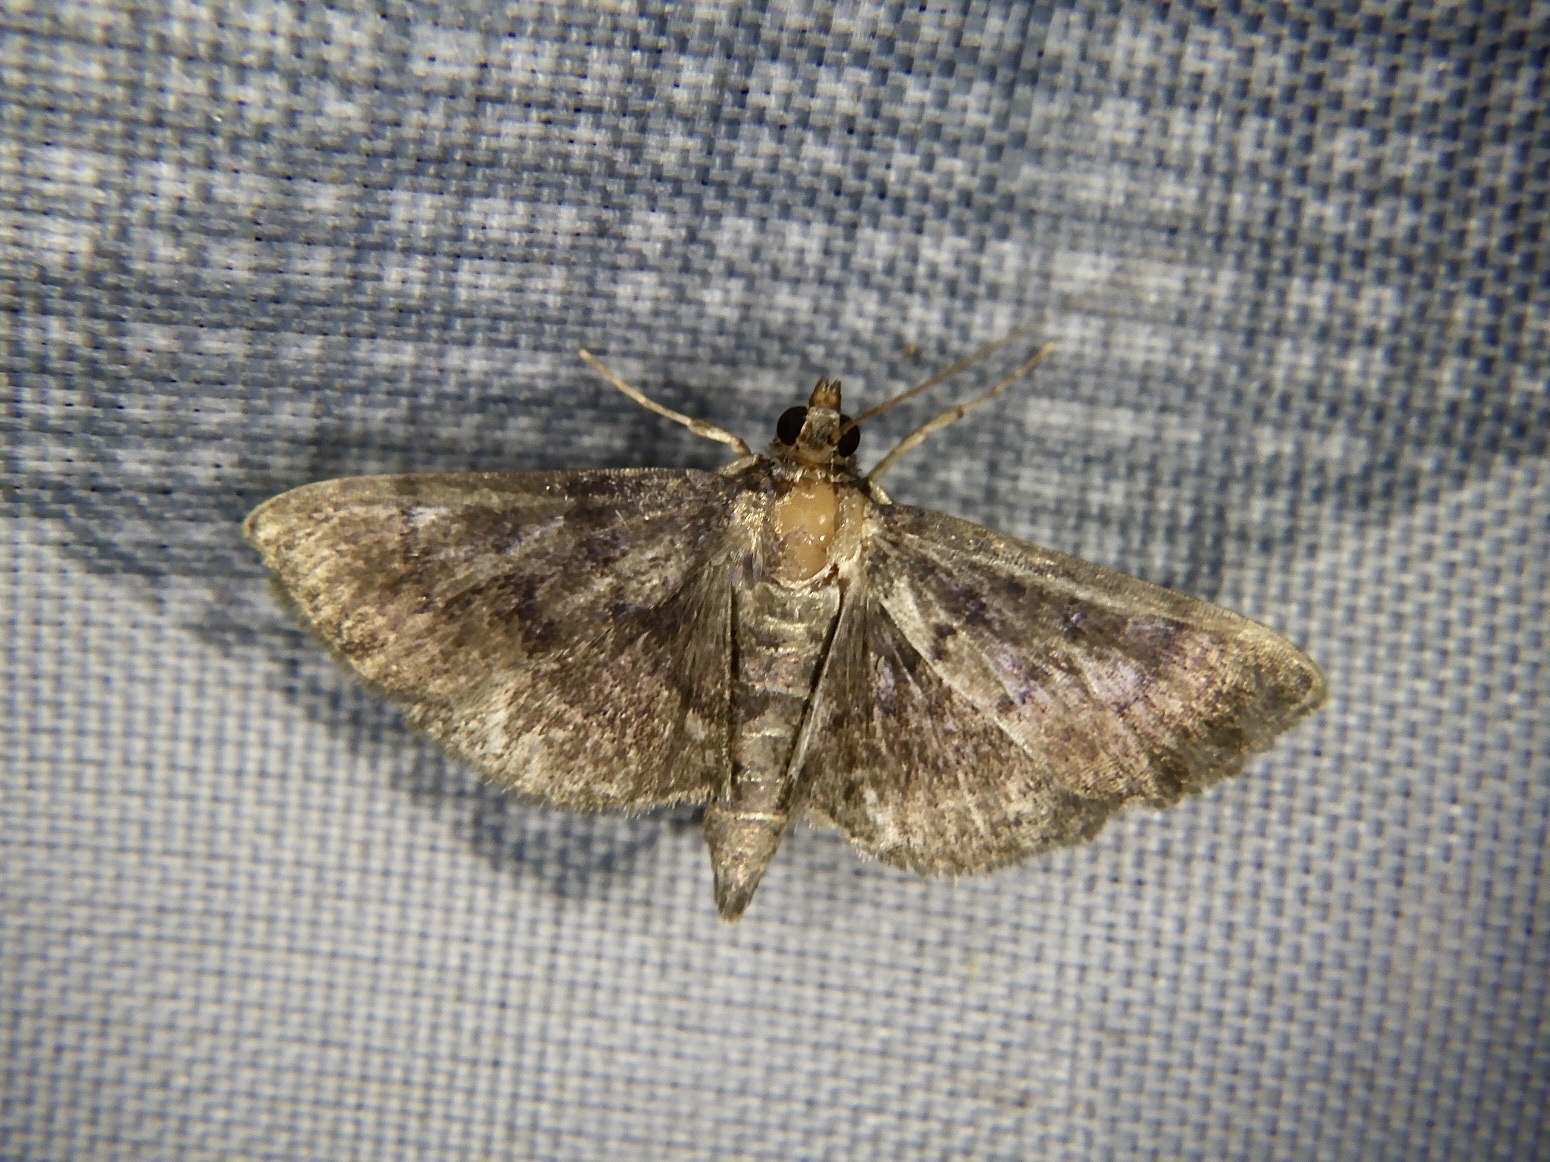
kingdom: Animalia
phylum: Arthropoda
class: Insecta
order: Lepidoptera
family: Crambidae
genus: Pyrausta
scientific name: Pyrausta limbata
